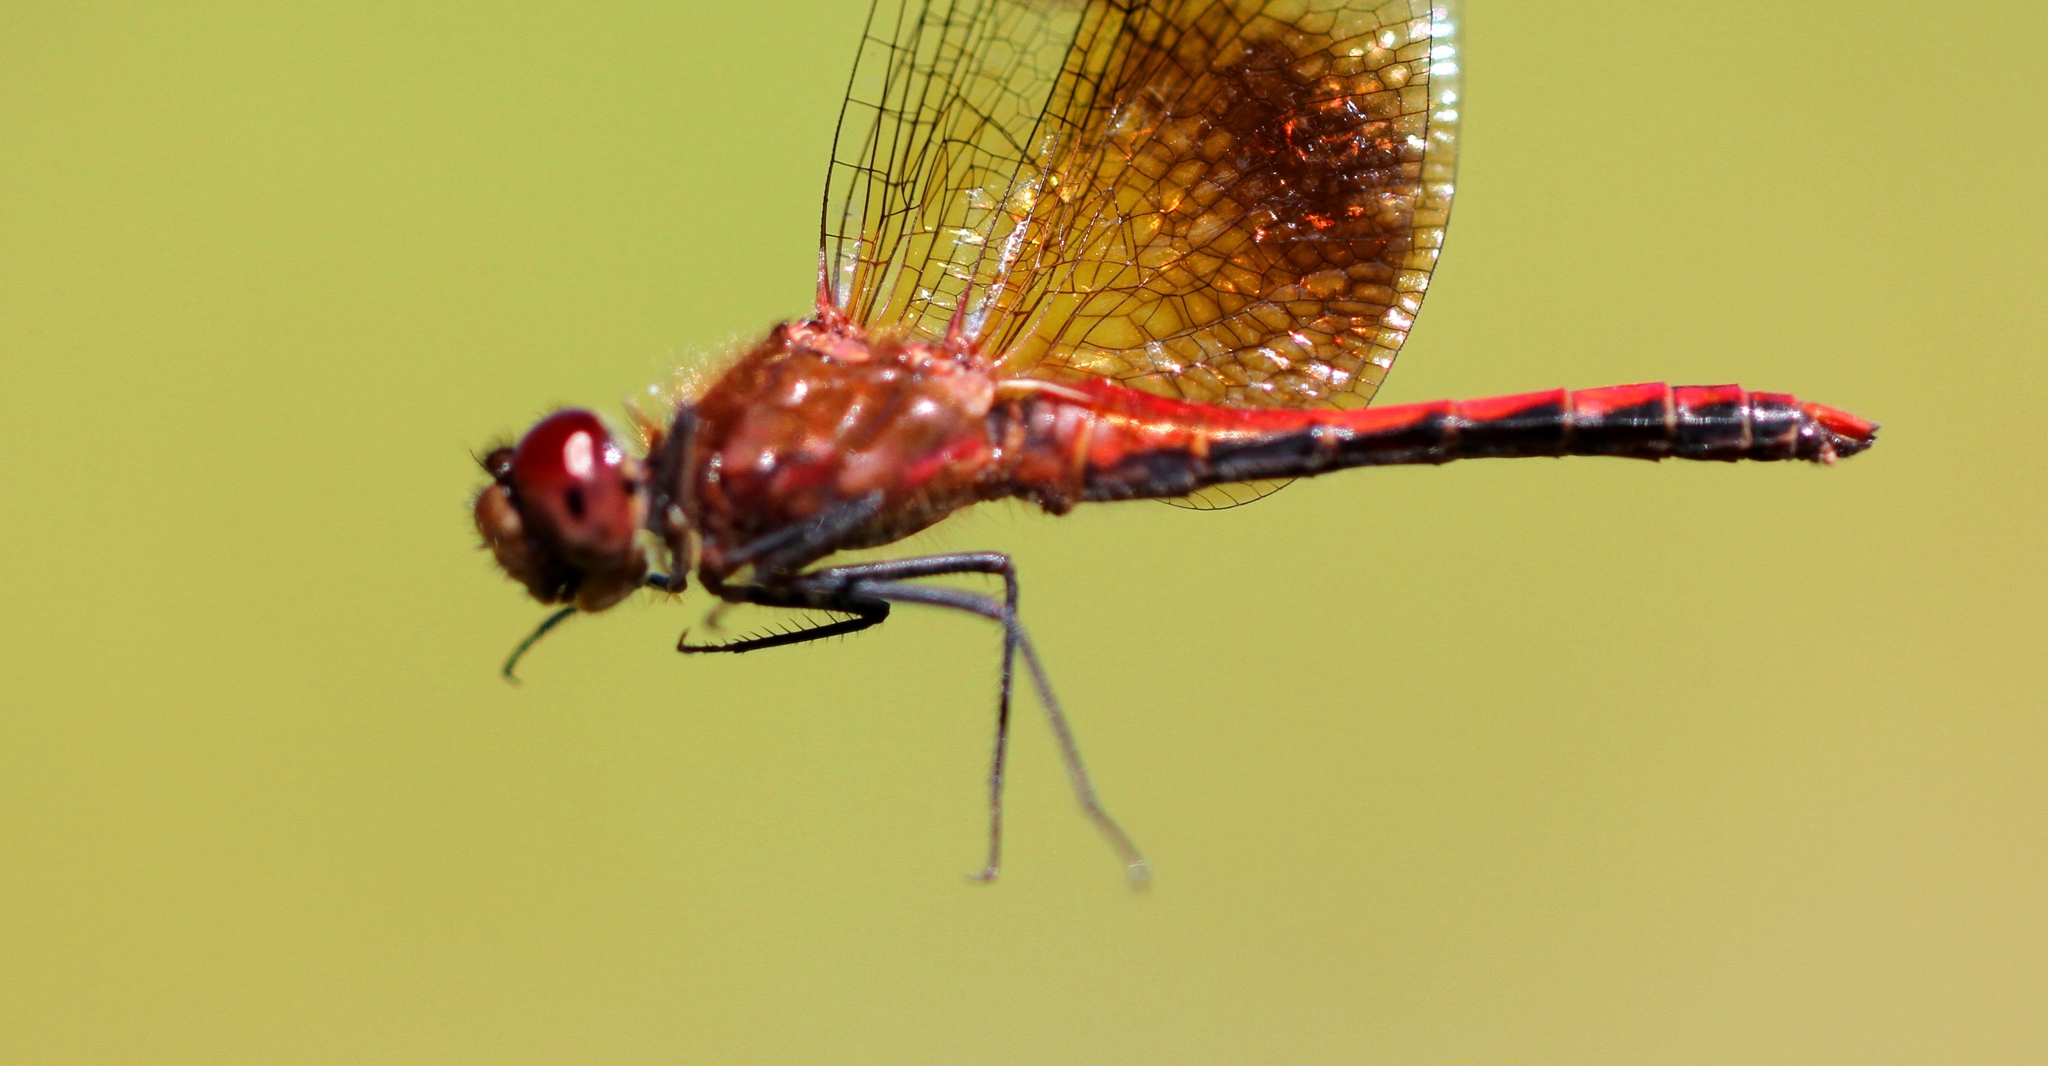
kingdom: Animalia
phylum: Arthropoda
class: Insecta
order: Odonata
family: Libellulidae
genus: Sympetrum
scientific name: Sympetrum semicinctum
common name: Band-winged meadowhawk
